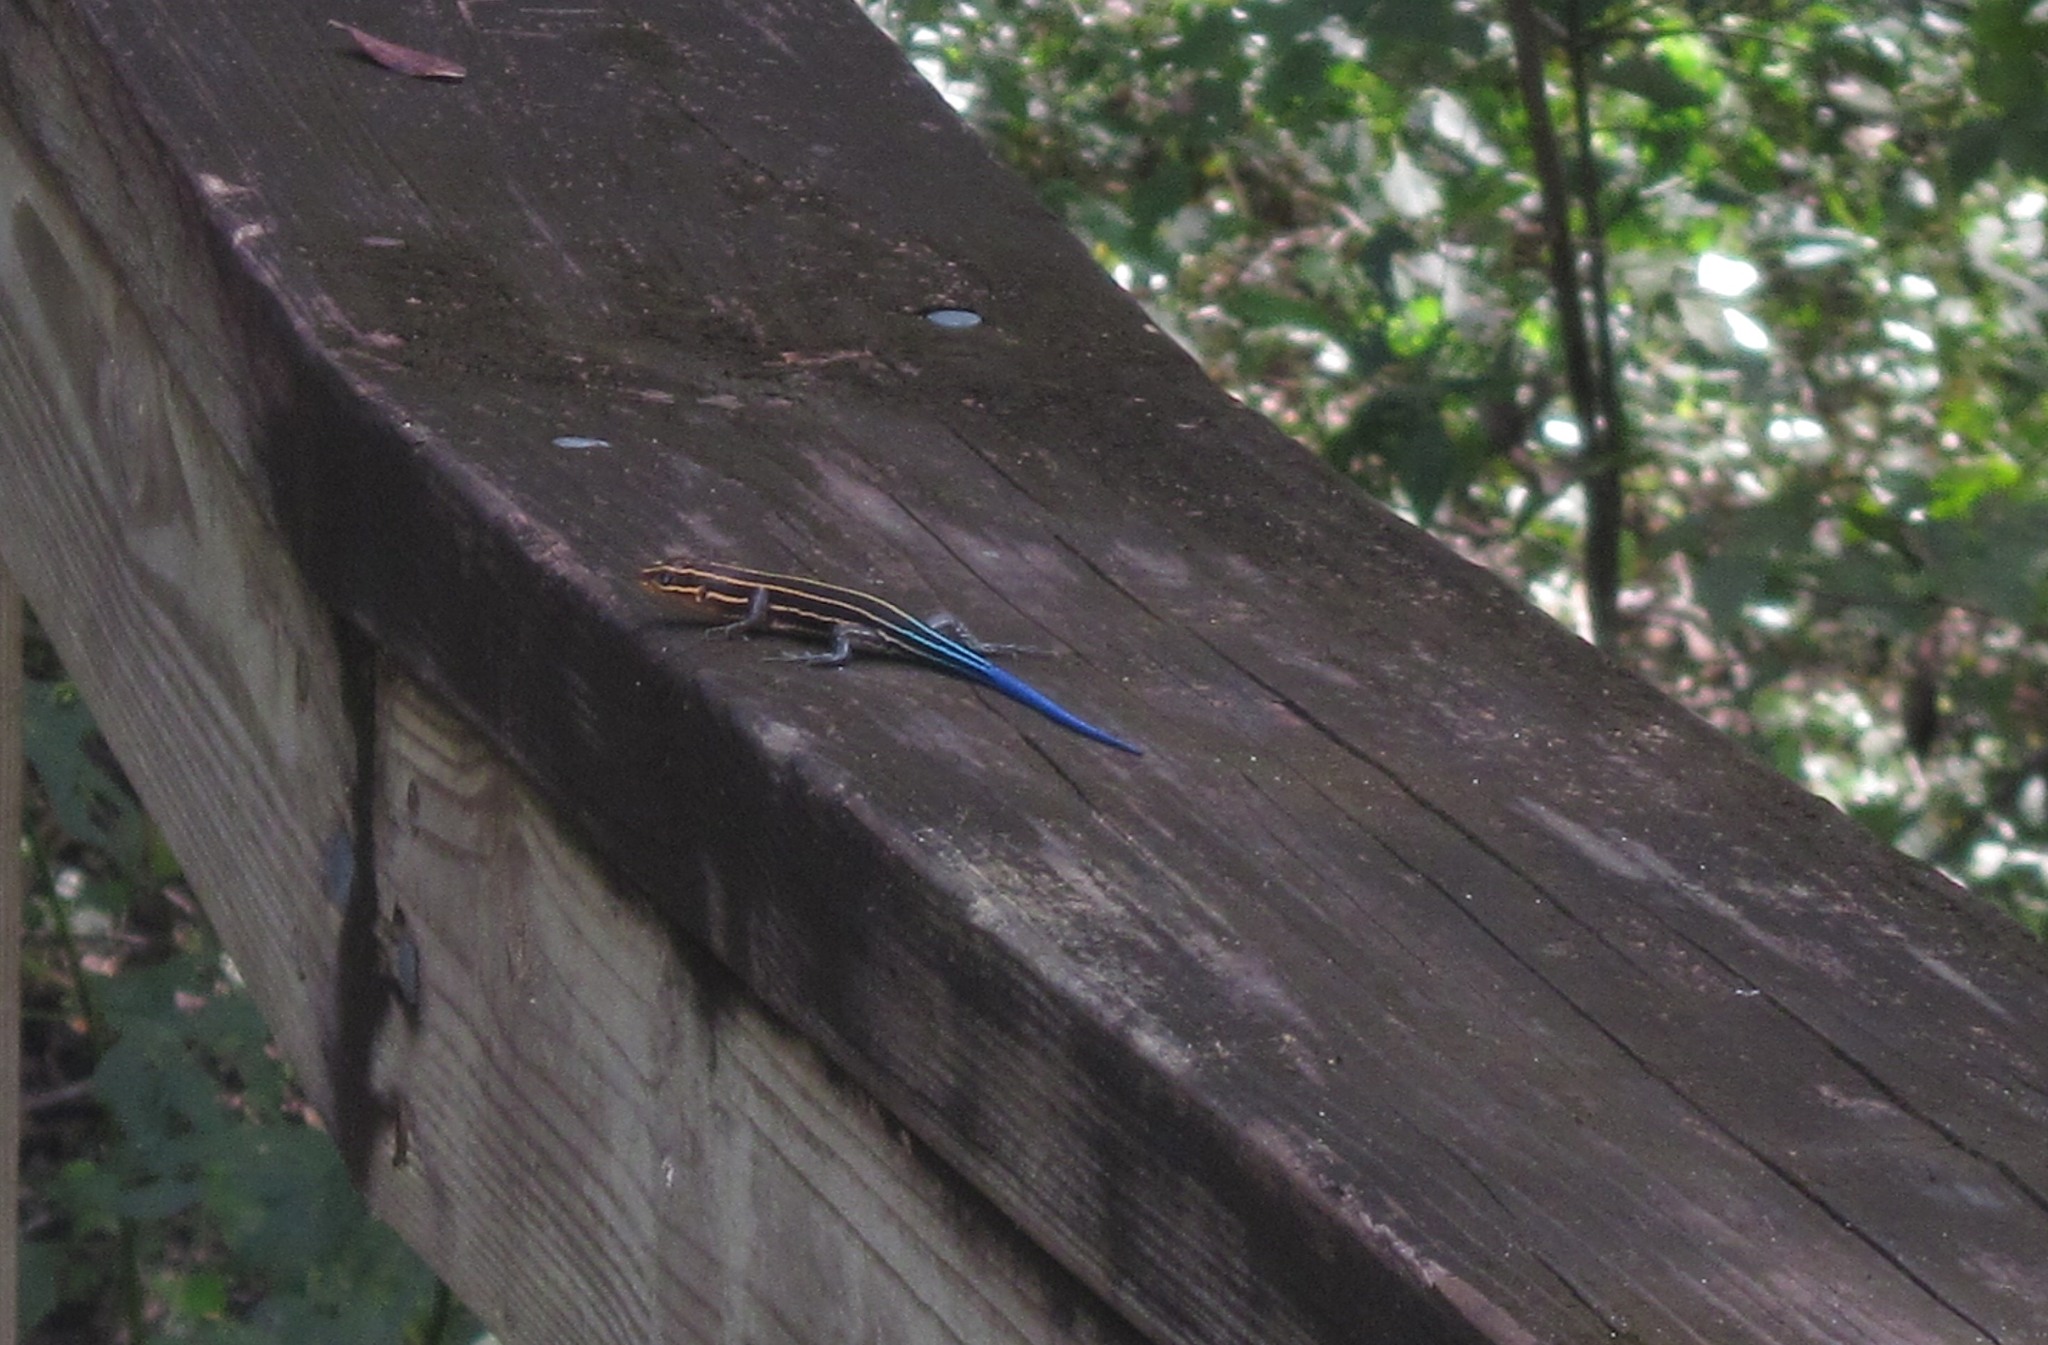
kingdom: Animalia
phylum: Chordata
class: Squamata
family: Scincidae
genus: Plestiodon
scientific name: Plestiodon inexpectatus
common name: Southeastern five-lined skink
